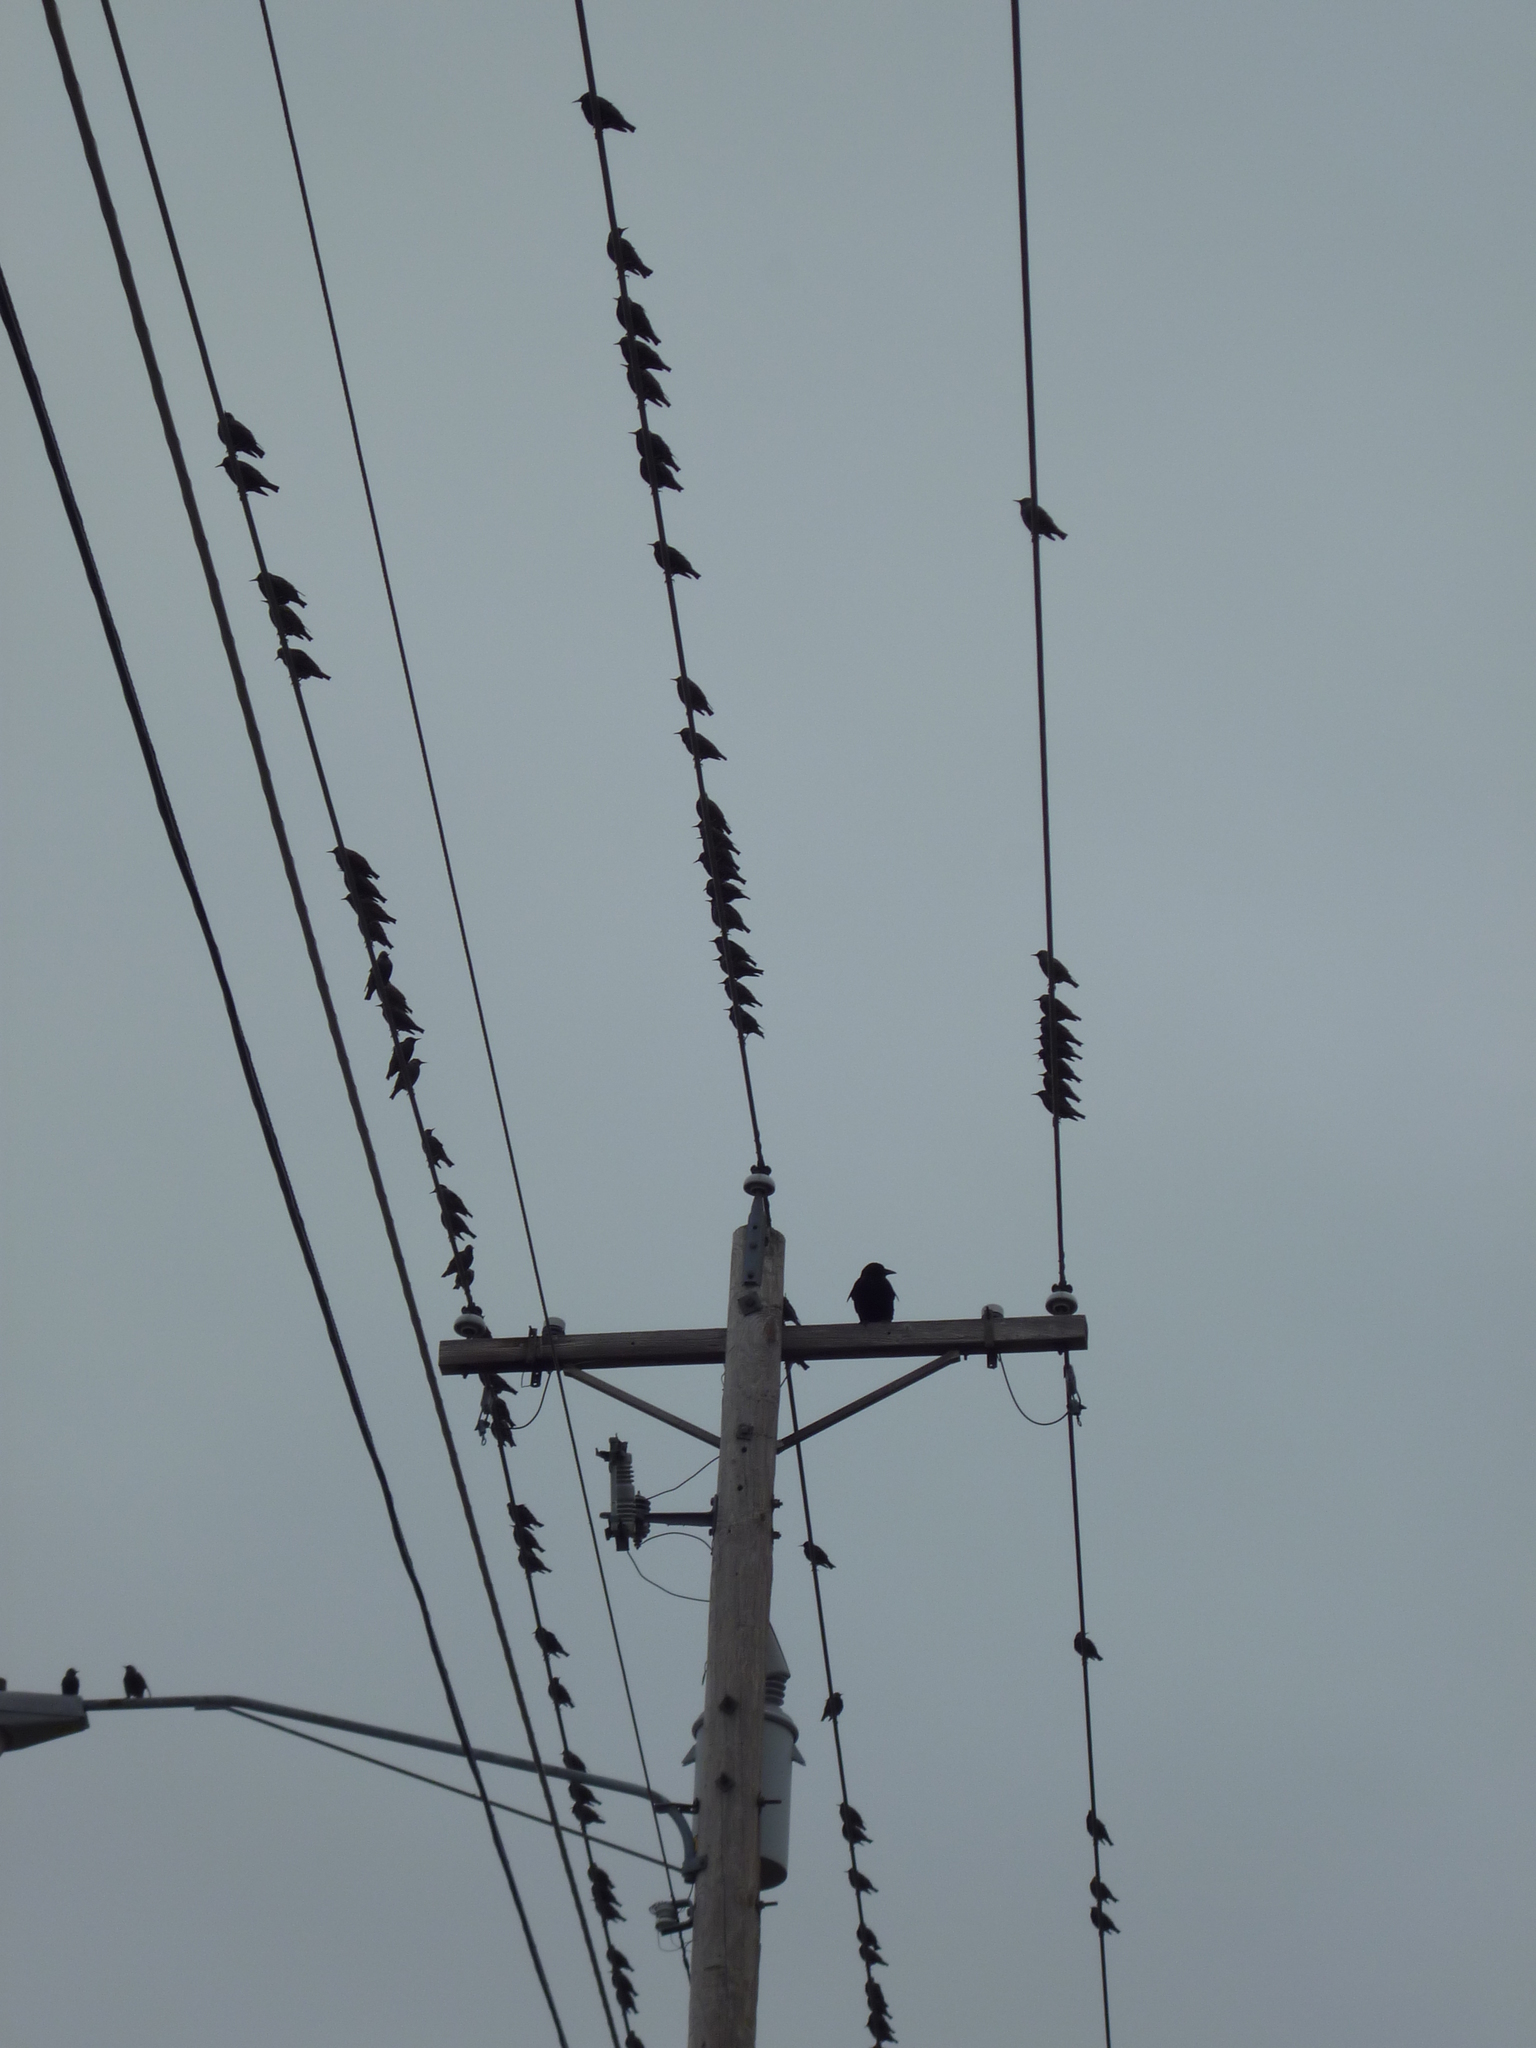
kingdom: Animalia
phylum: Chordata
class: Aves
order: Passeriformes
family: Sturnidae
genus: Sturnus
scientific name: Sturnus vulgaris
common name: Common starling
